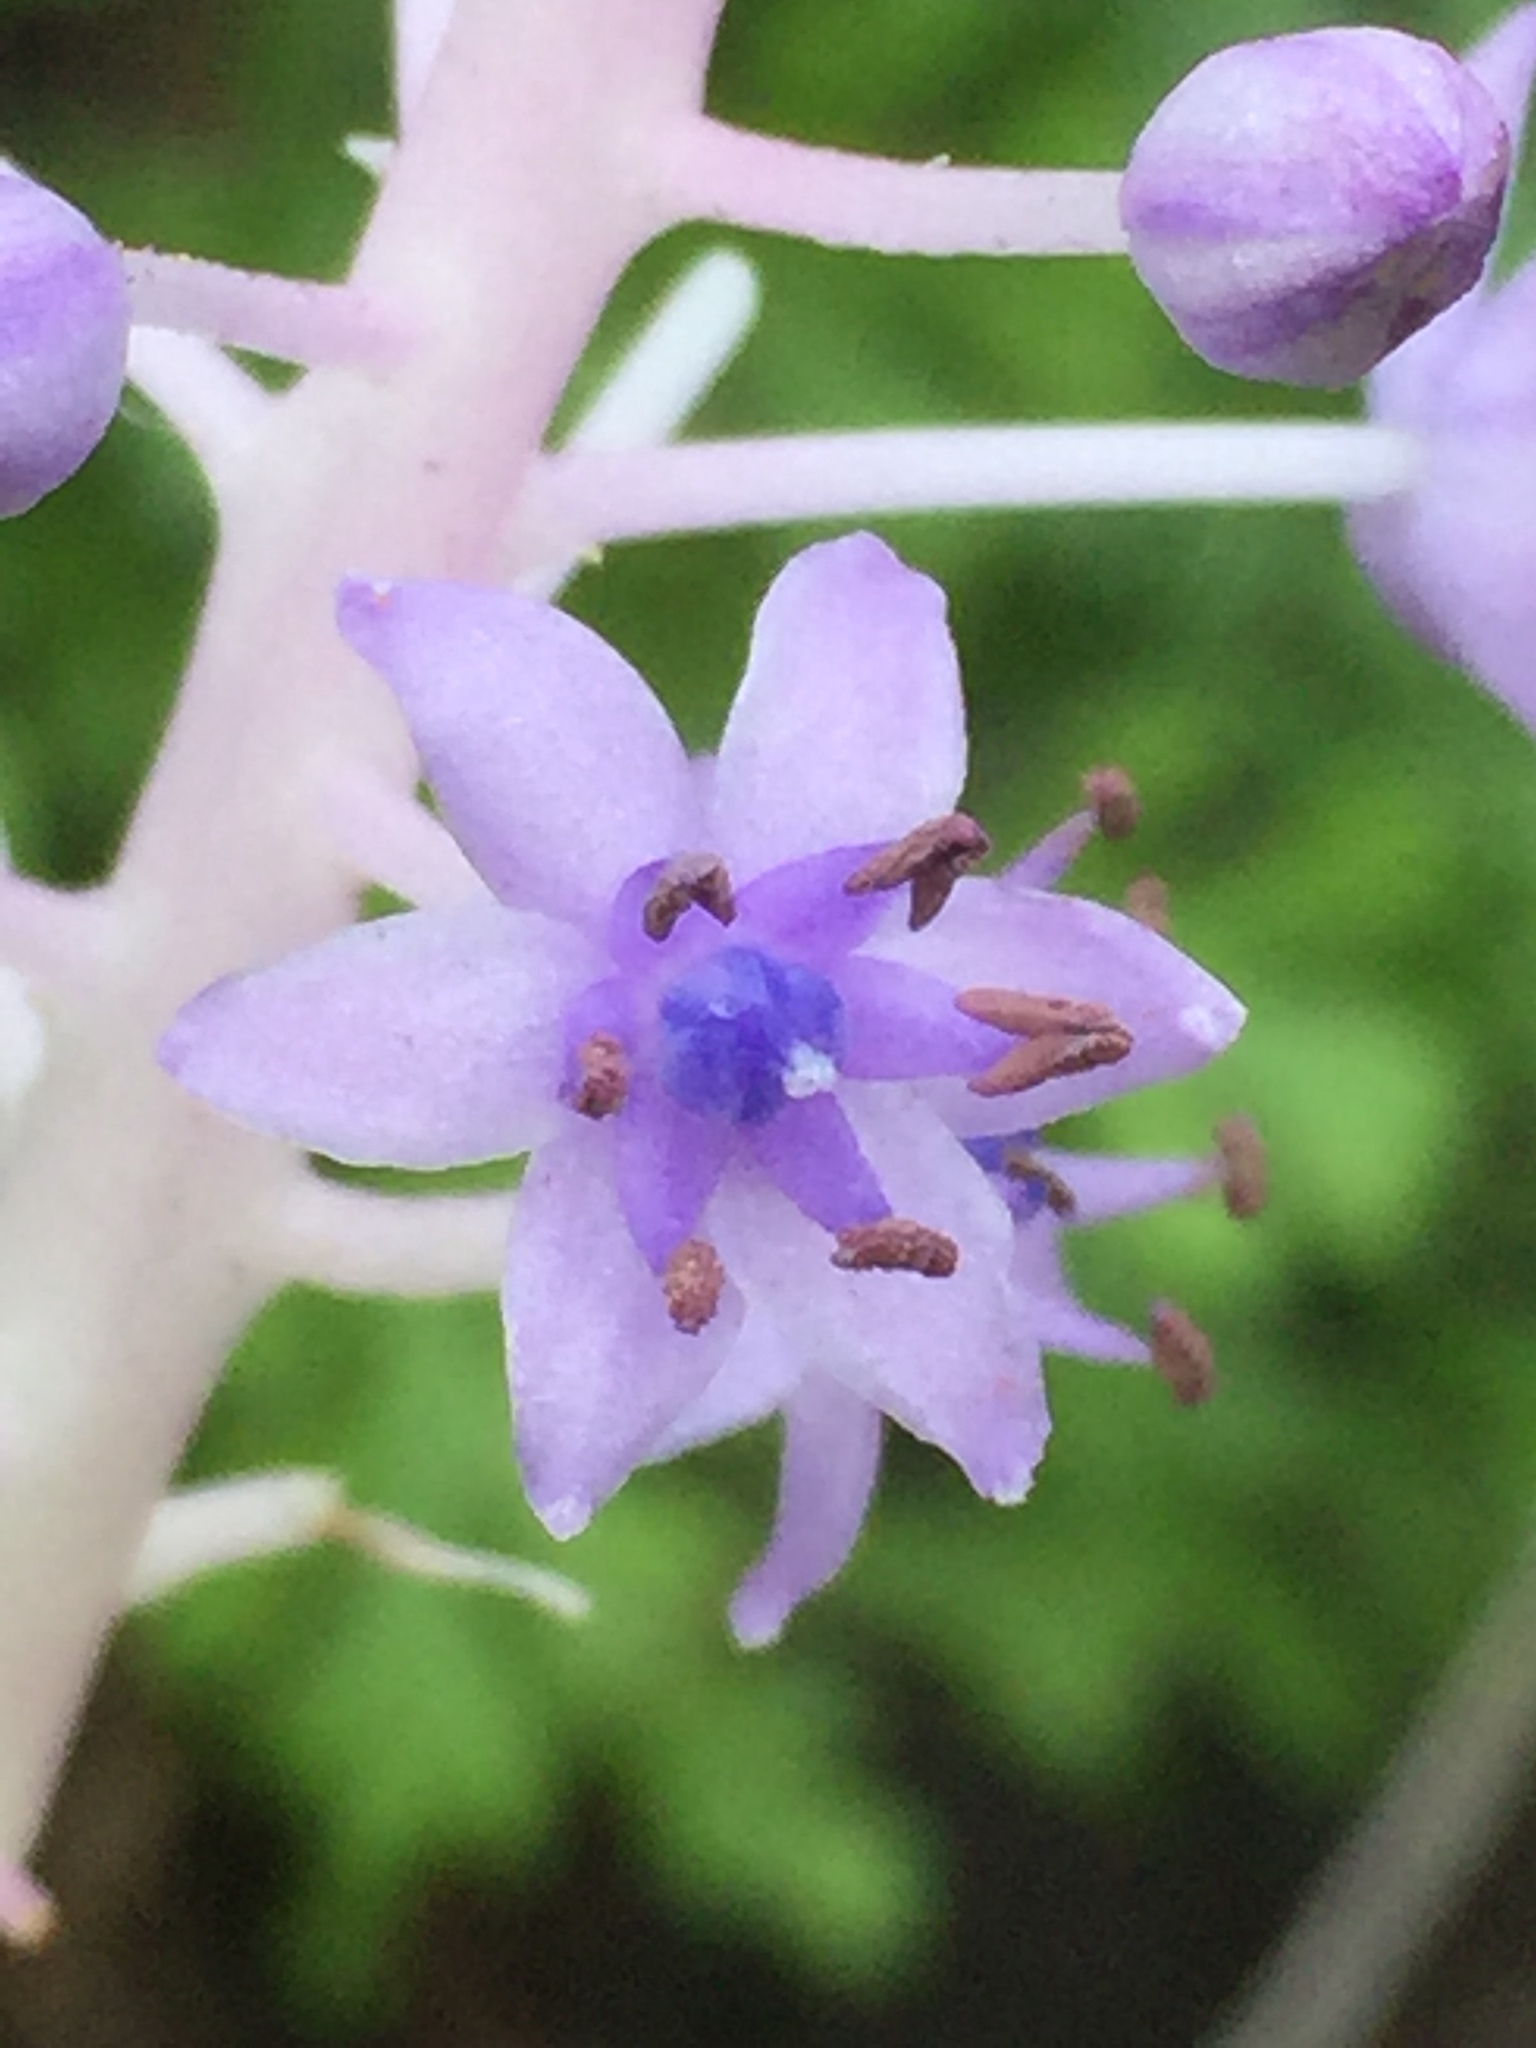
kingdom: Plantae
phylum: Tracheophyta
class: Liliopsida
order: Asparagales
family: Asparagaceae
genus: Scilla
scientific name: Scilla latifolia
